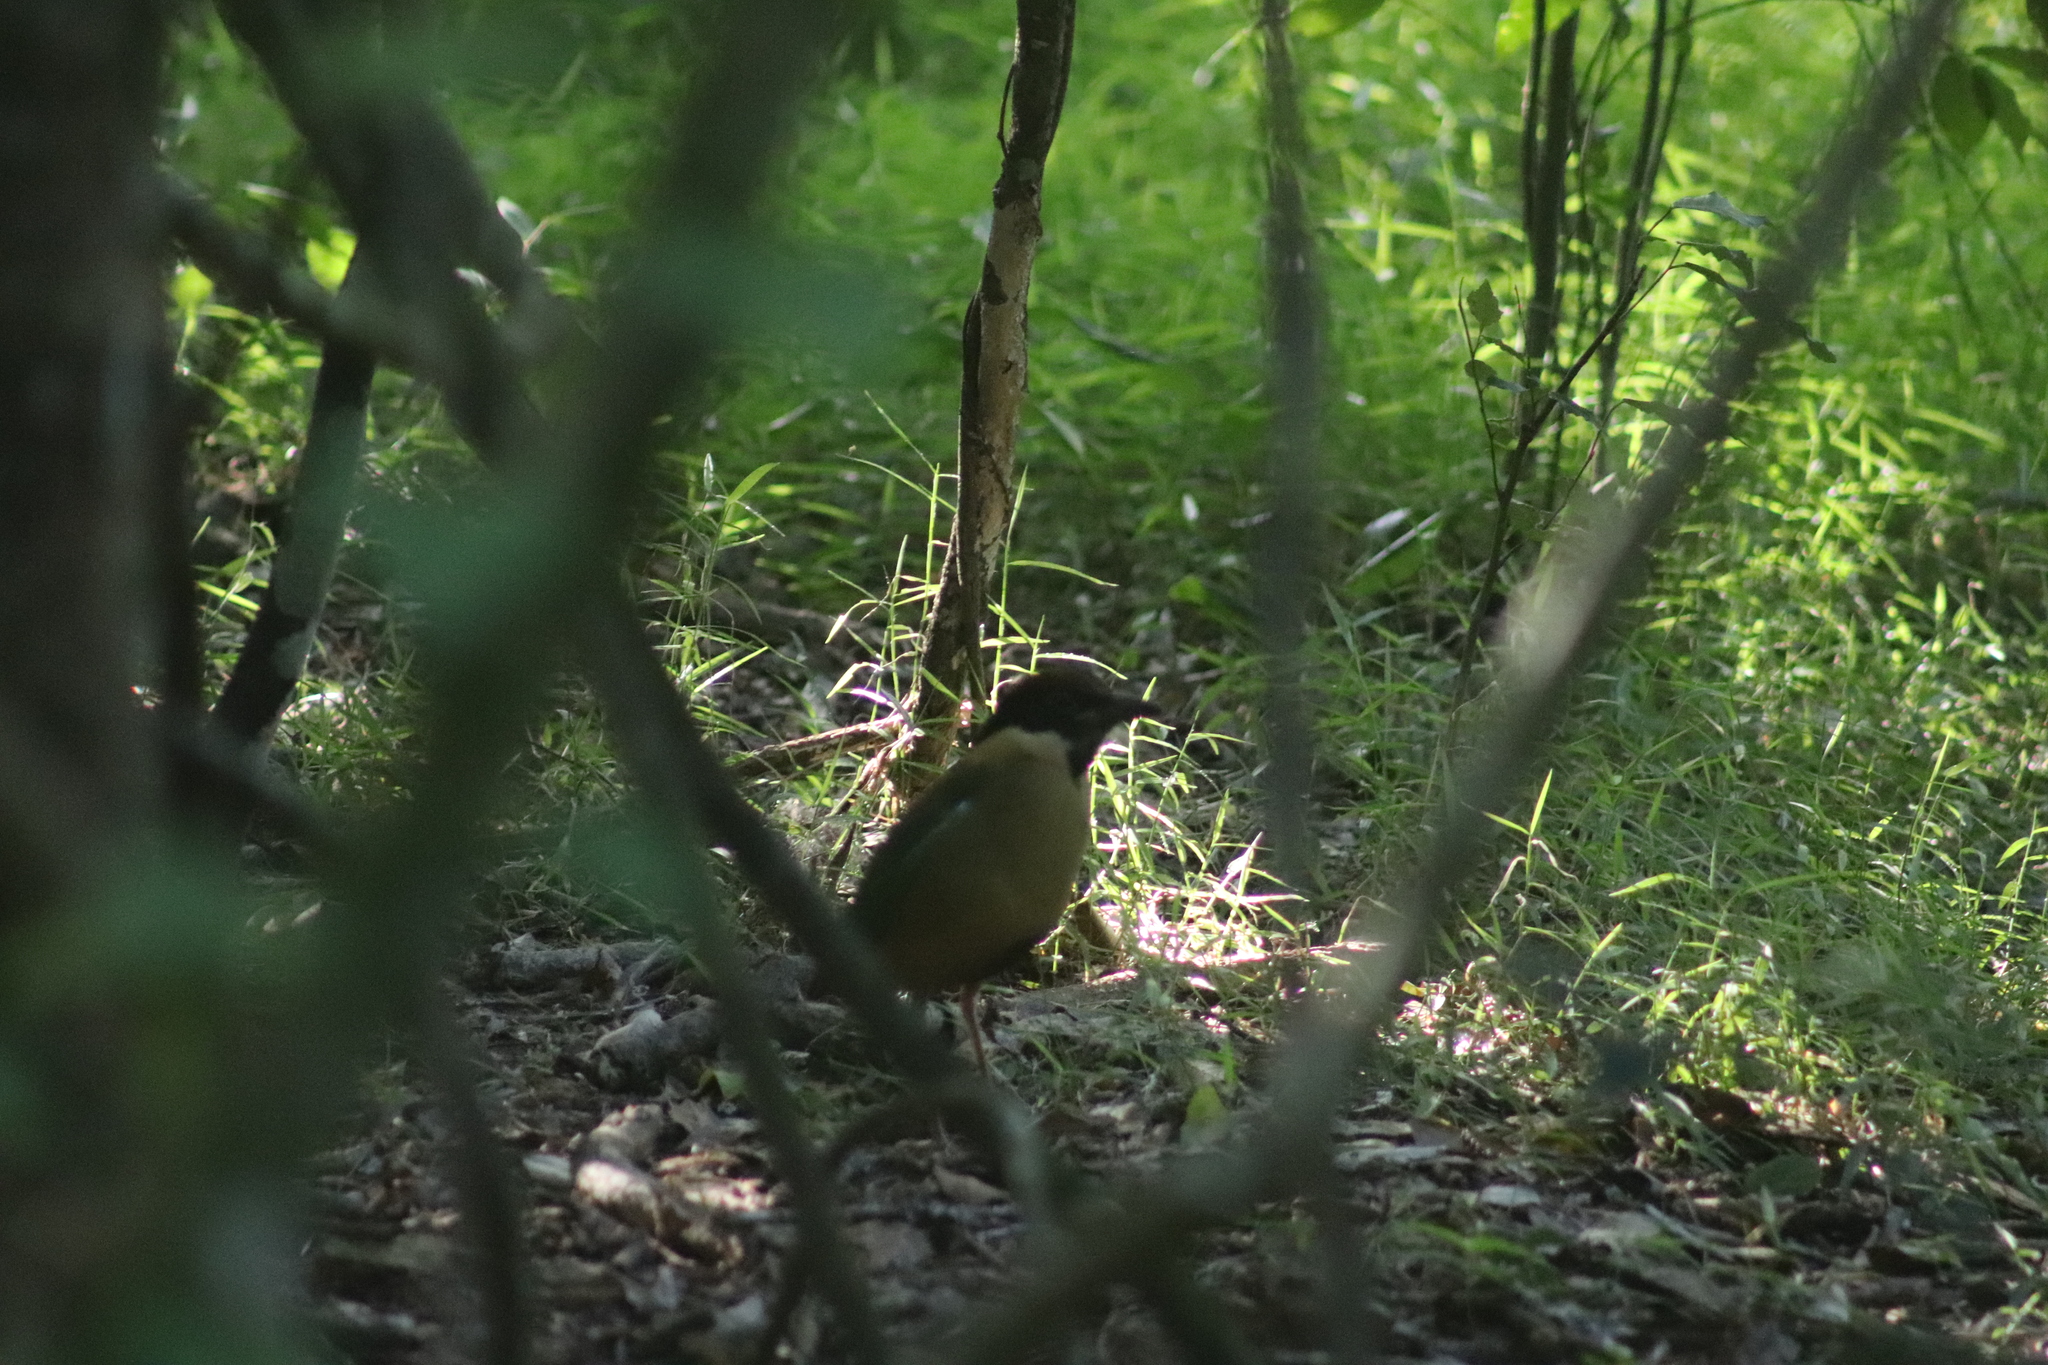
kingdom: Animalia
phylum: Chordata
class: Aves
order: Passeriformes
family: Pittidae
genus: Pitta
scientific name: Pitta versicolor
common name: Noisy pitta
